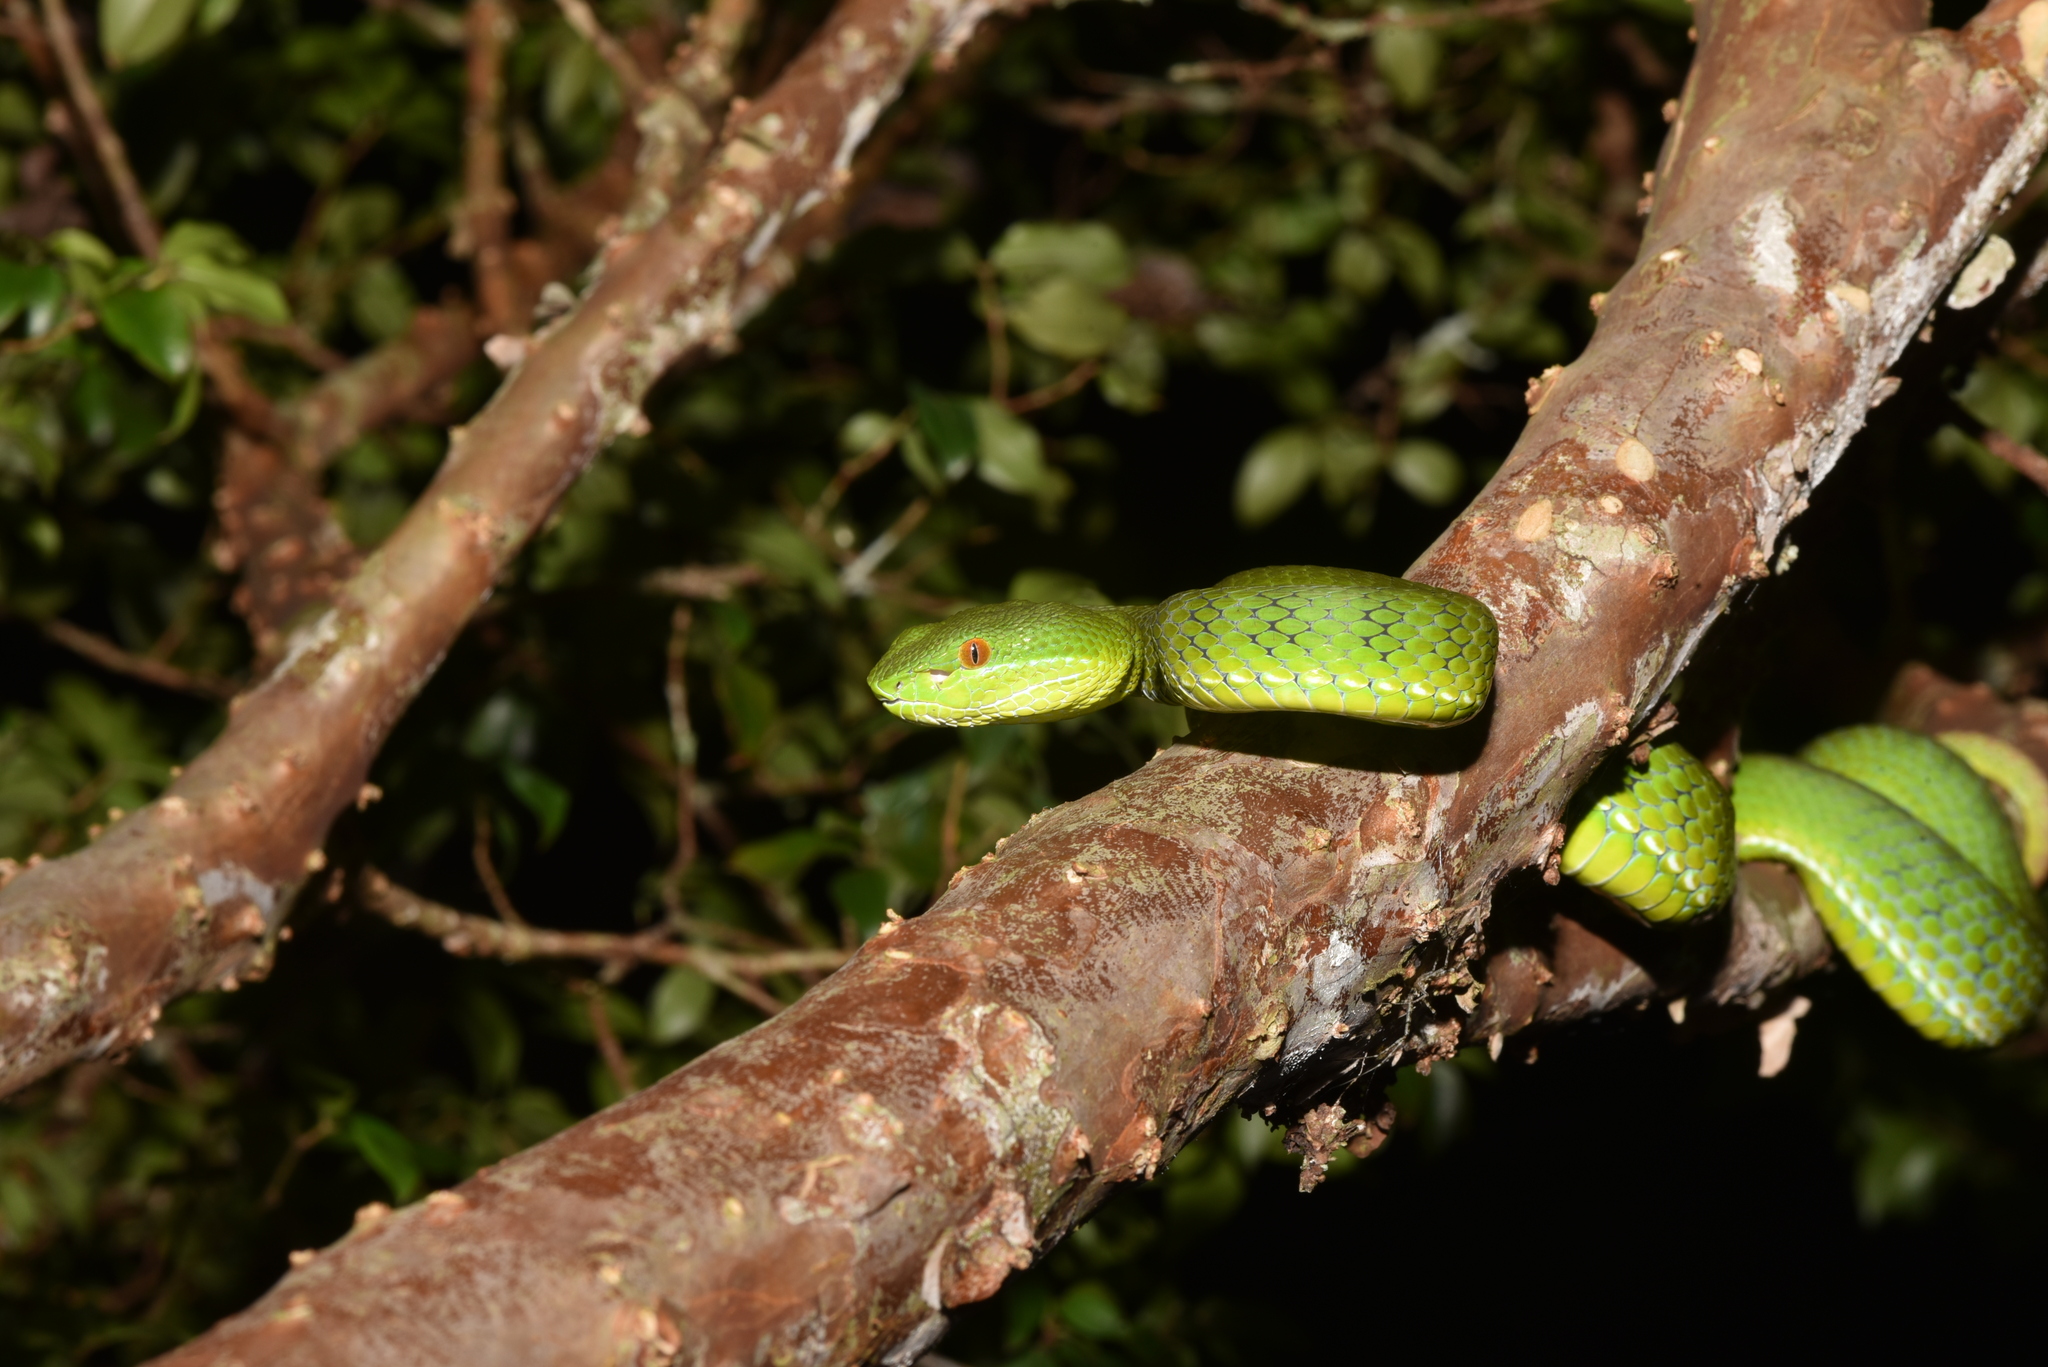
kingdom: Animalia
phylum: Chordata
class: Squamata
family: Viperidae
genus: Trimeresurus
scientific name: Trimeresurus stejnegeri
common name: Chen’s bamboo pit viper
